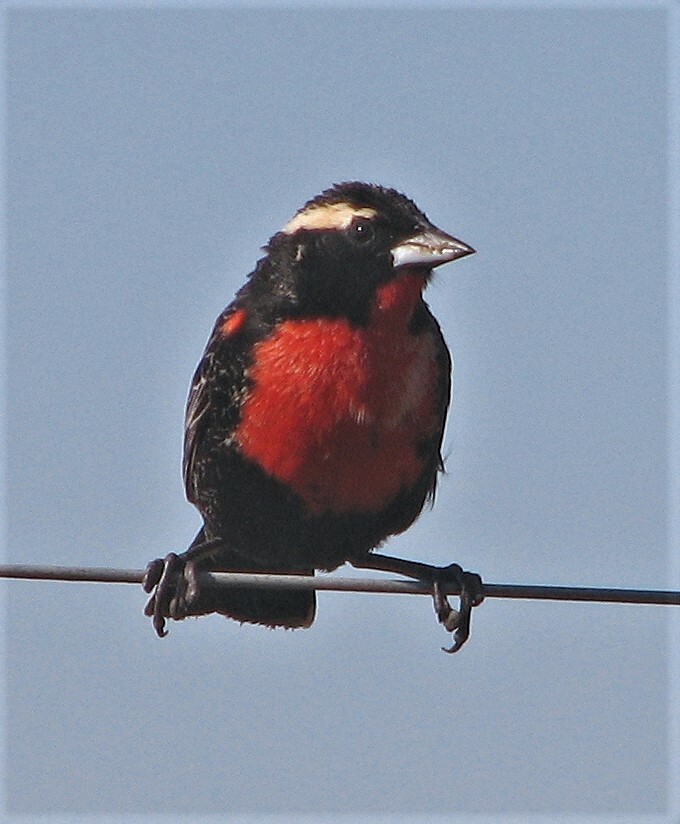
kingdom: Animalia
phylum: Chordata
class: Aves
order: Passeriformes
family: Icteridae
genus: Sturnella
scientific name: Sturnella superciliaris
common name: White-browed blackbird
